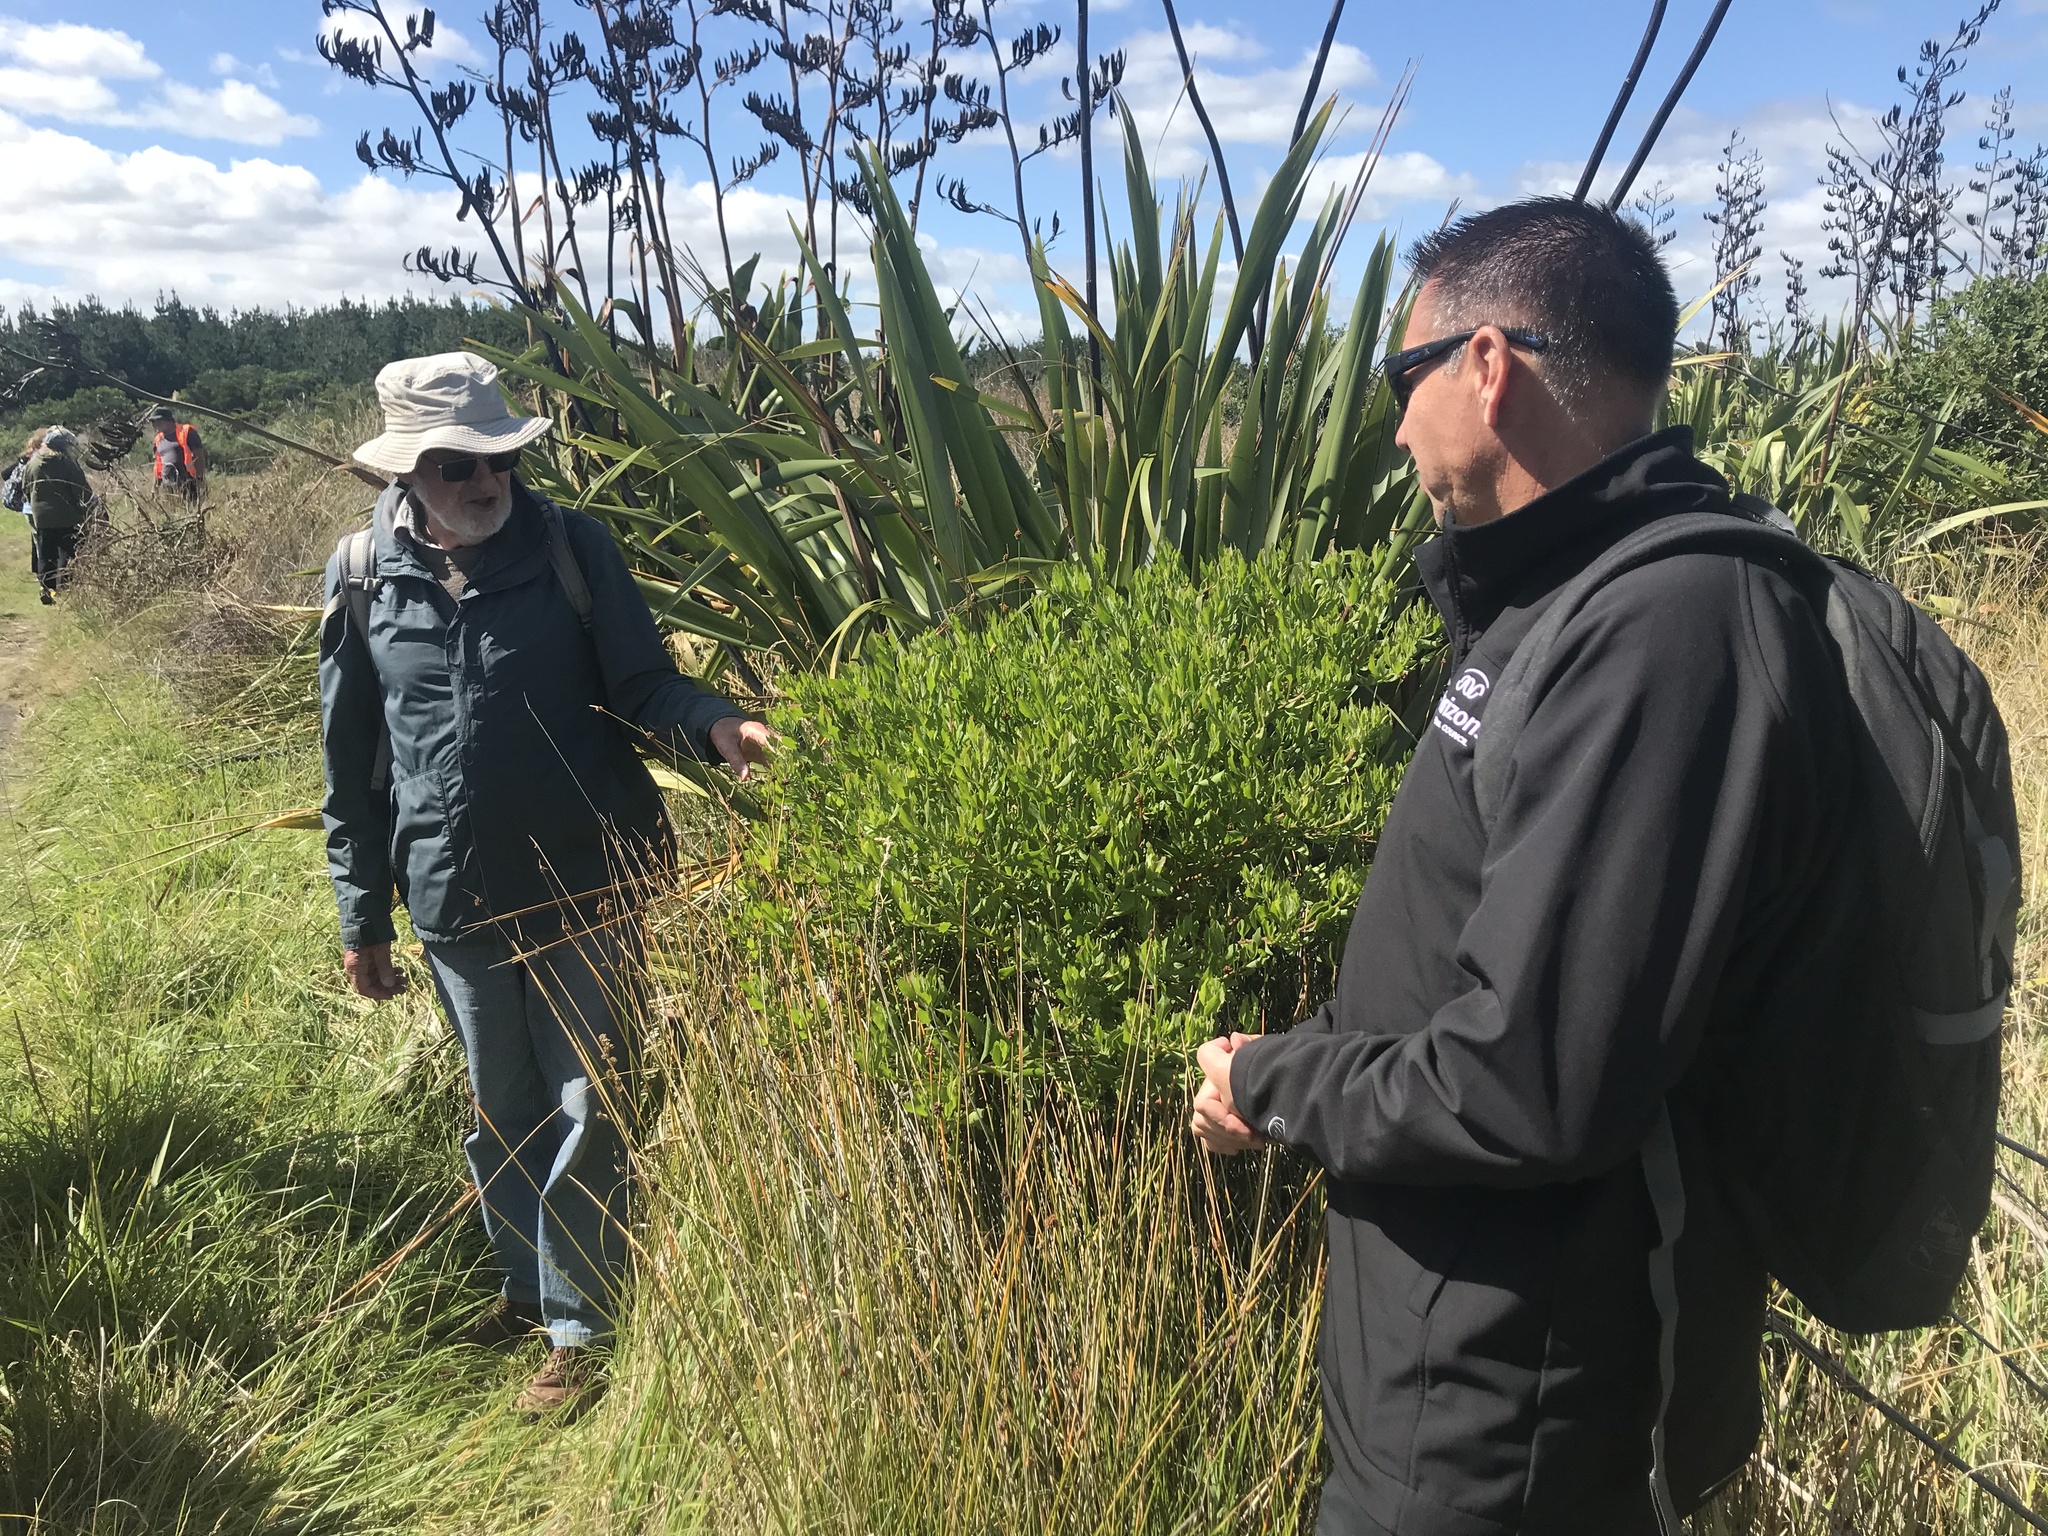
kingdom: Plantae
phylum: Tracheophyta
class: Magnoliopsida
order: Asterales
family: Asteraceae
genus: Osteospermum
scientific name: Osteospermum moniliferum
